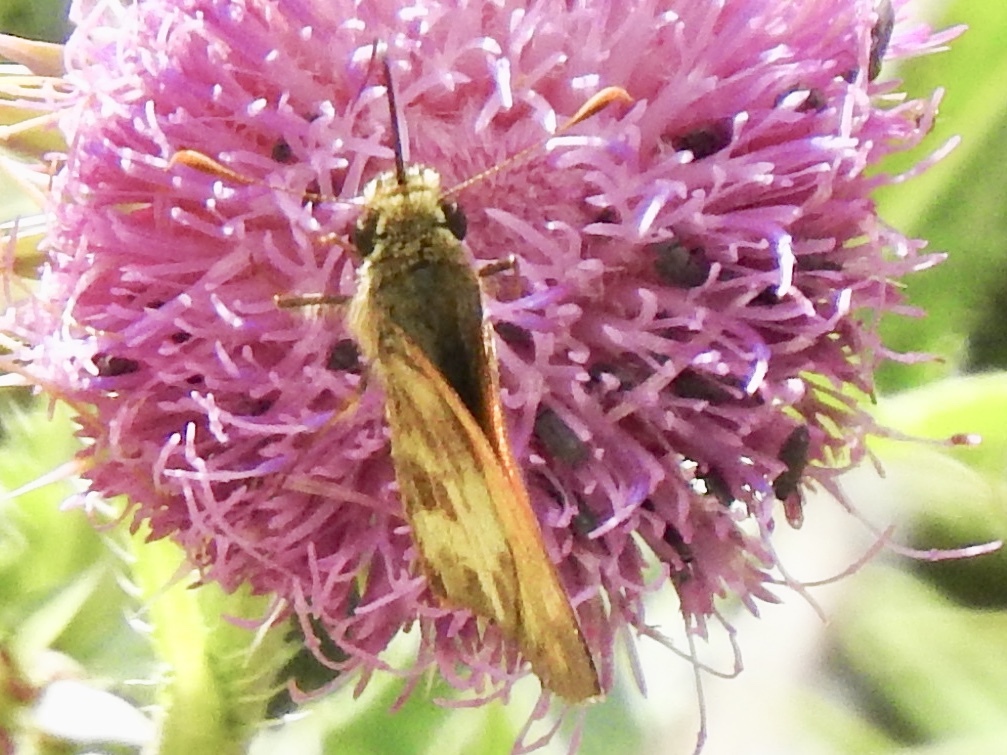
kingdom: Animalia
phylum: Arthropoda
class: Insecta
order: Lepidoptera
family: Hesperiidae
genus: Lon
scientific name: Lon taxiles
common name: Taxiles skipper
